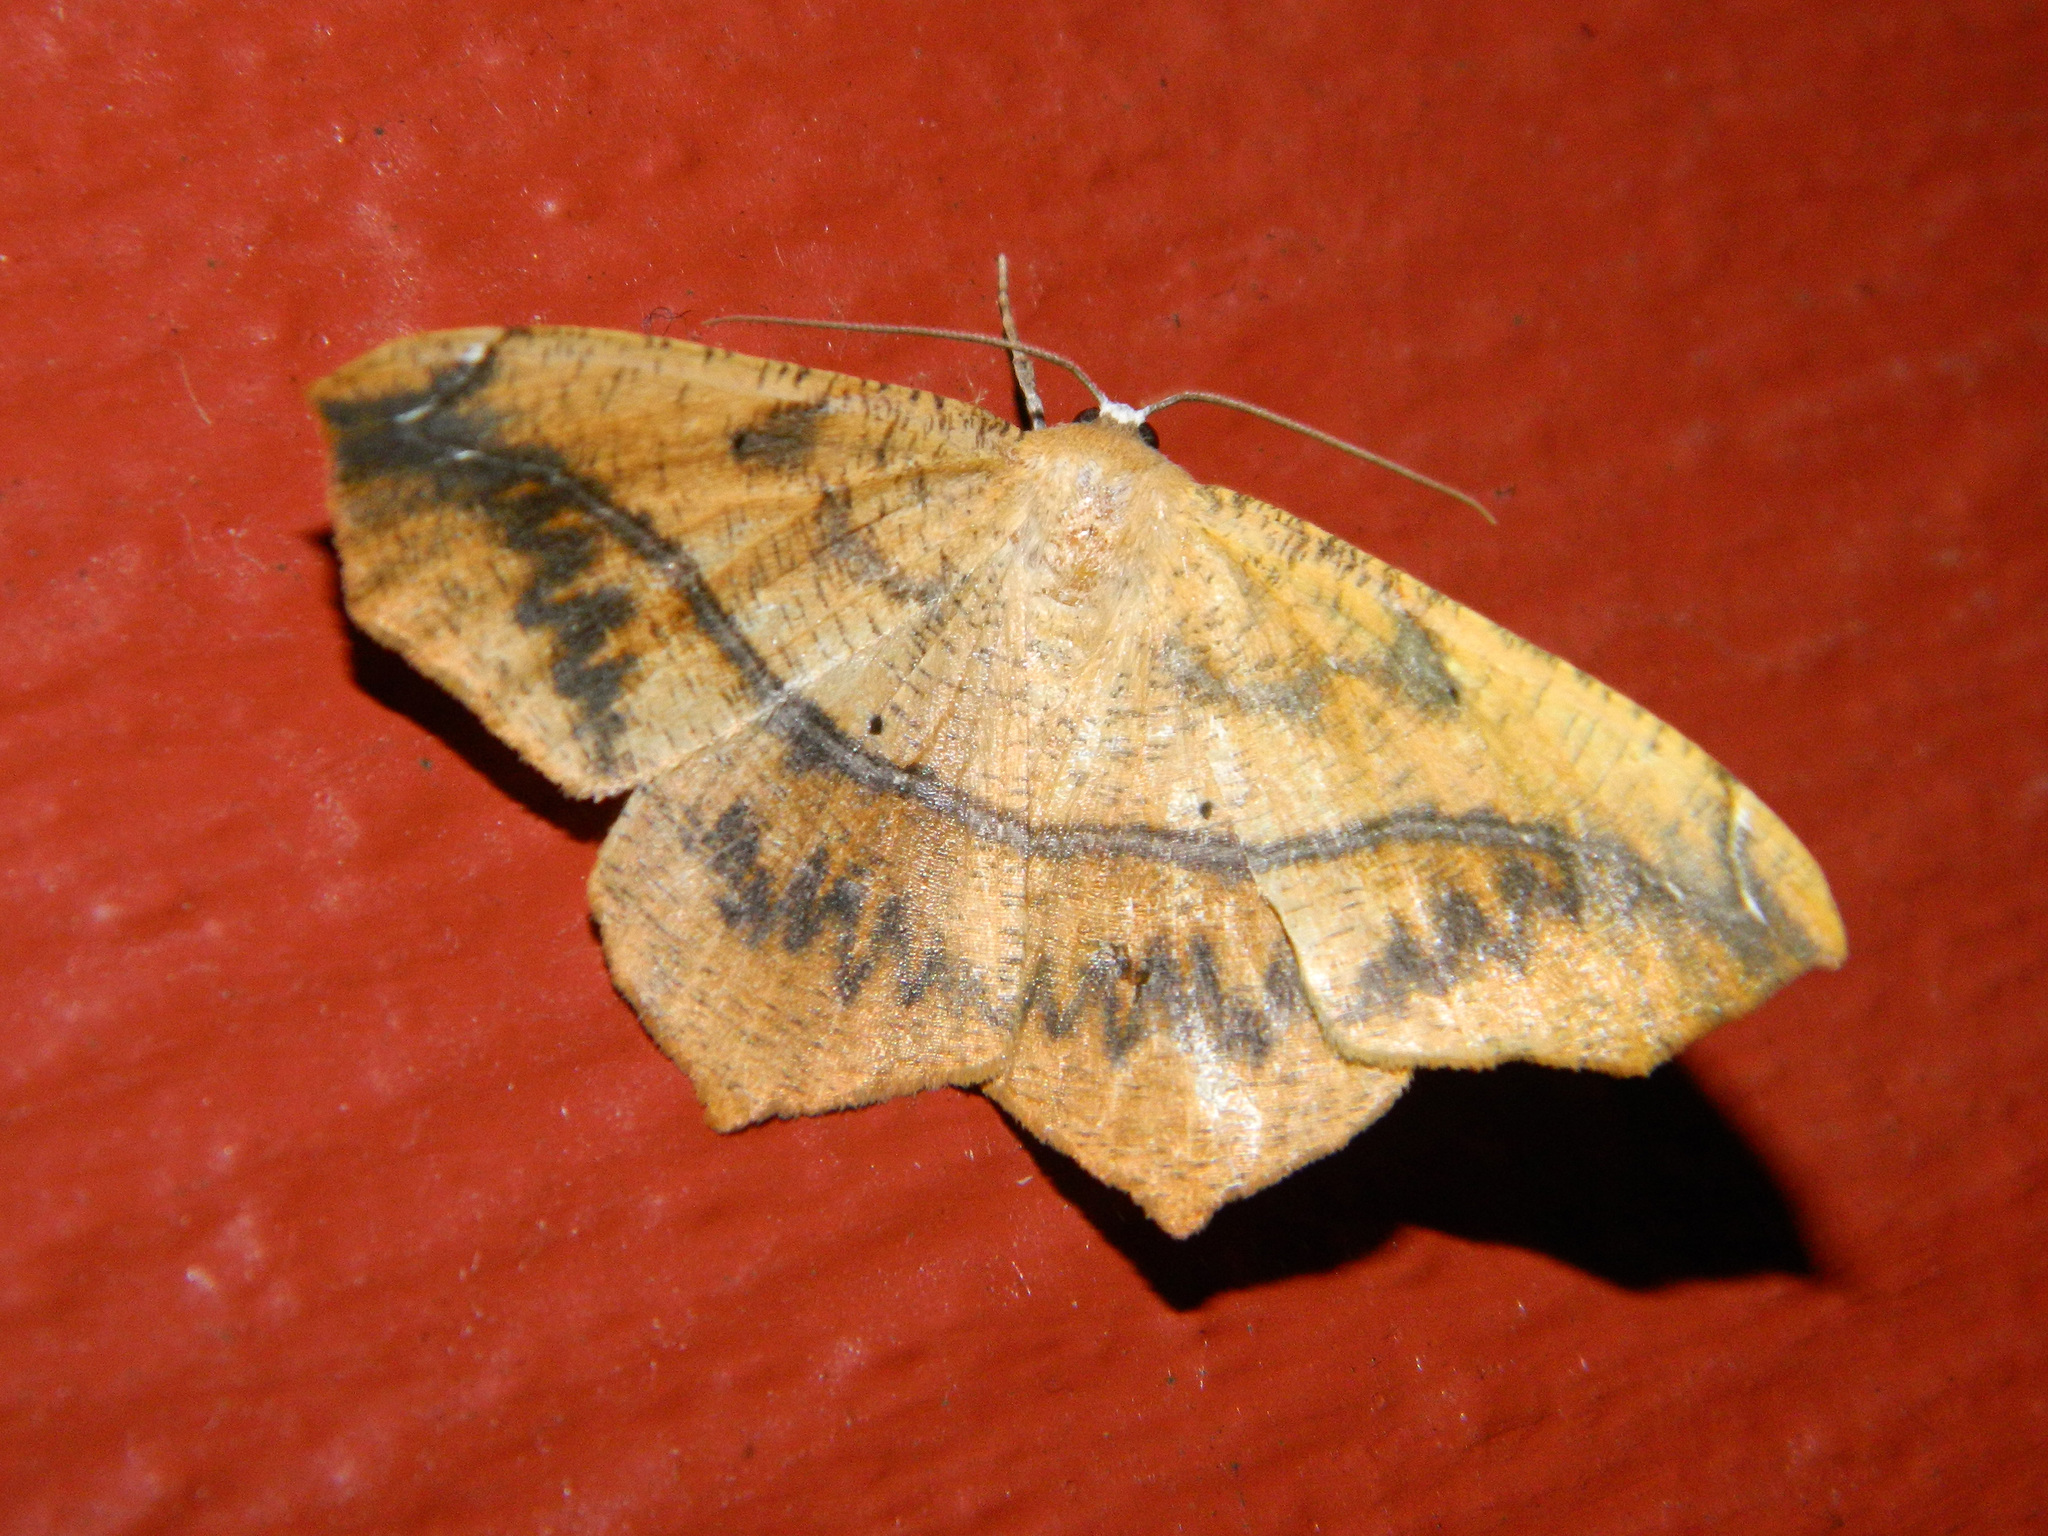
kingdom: Animalia
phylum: Arthropoda
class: Insecta
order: Lepidoptera
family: Geometridae
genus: Prochoerodes
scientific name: Prochoerodes lineola
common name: Large maple spanworm
